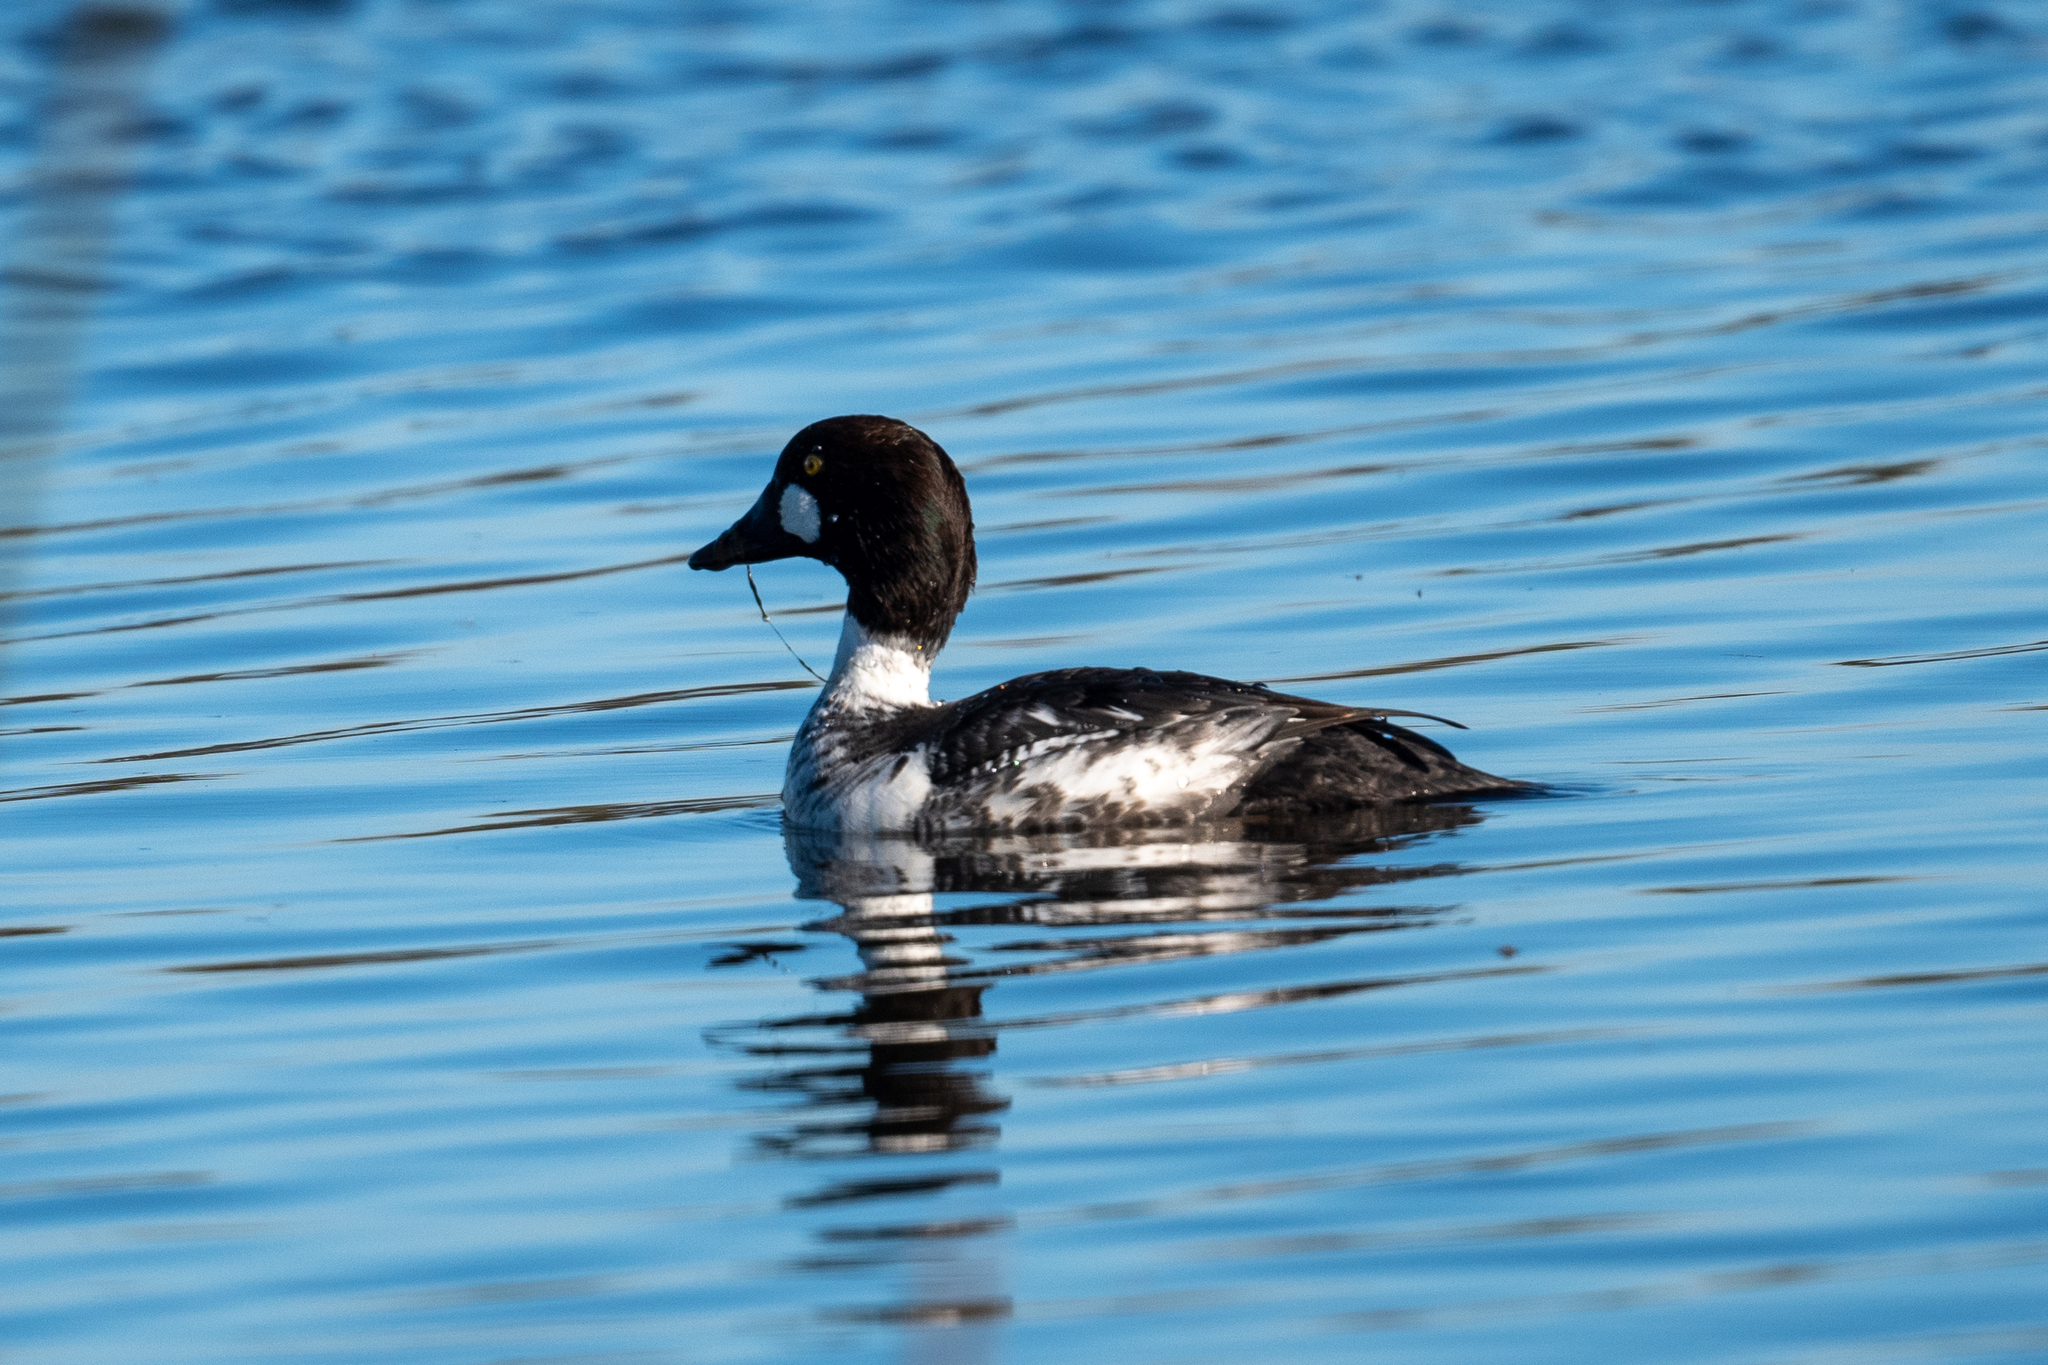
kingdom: Animalia
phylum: Chordata
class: Aves
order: Anseriformes
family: Anatidae
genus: Bucephala
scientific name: Bucephala clangula
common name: Common goldeneye
